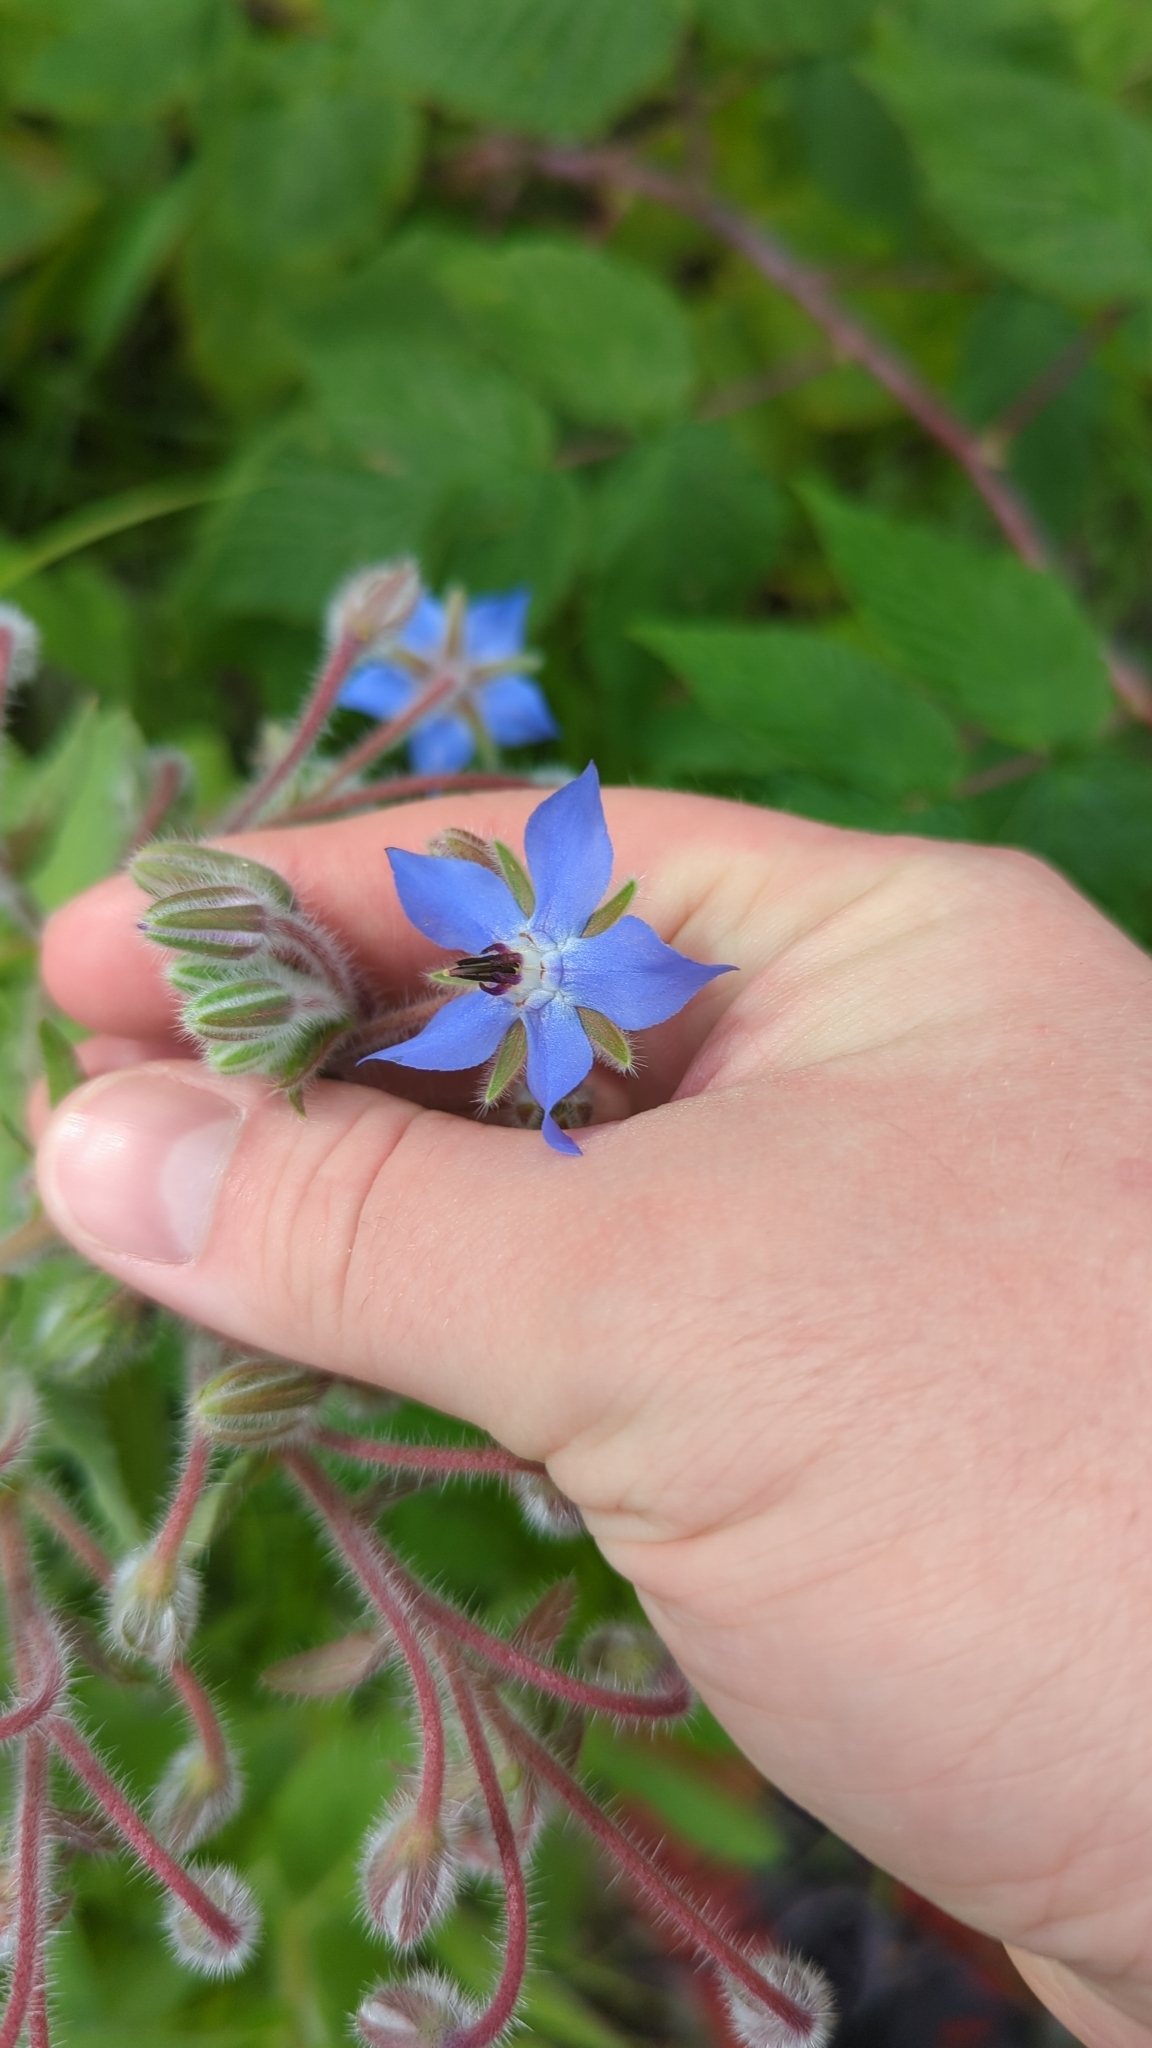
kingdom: Plantae
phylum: Tracheophyta
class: Magnoliopsida
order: Boraginales
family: Boraginaceae
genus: Borago
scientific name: Borago officinalis
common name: Borage
